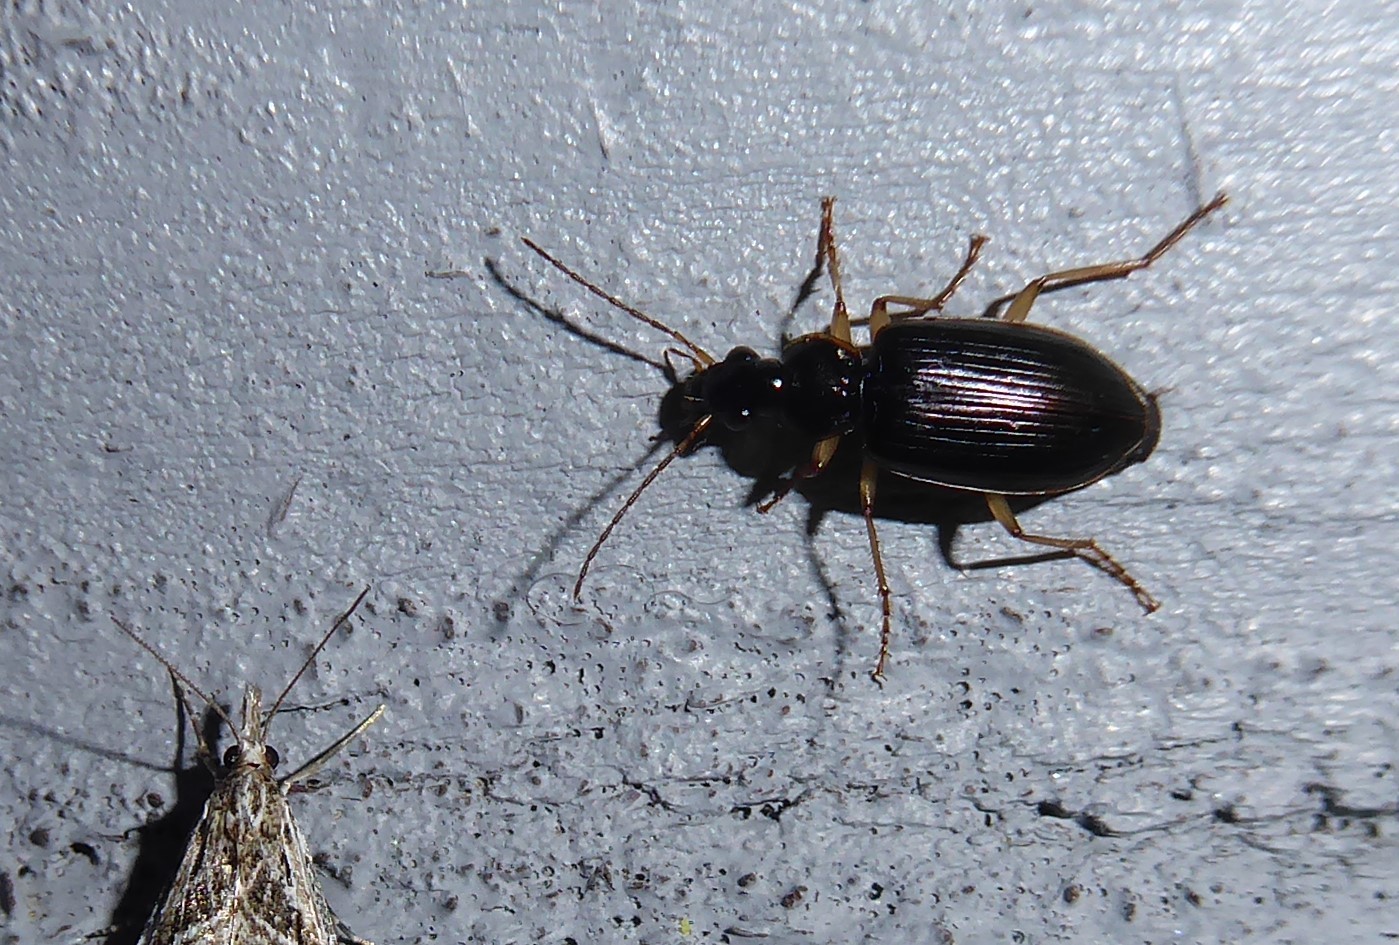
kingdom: Animalia
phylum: Arthropoda
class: Insecta
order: Coleoptera
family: Carabidae
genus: Notagonum
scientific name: Notagonum submetallicum
